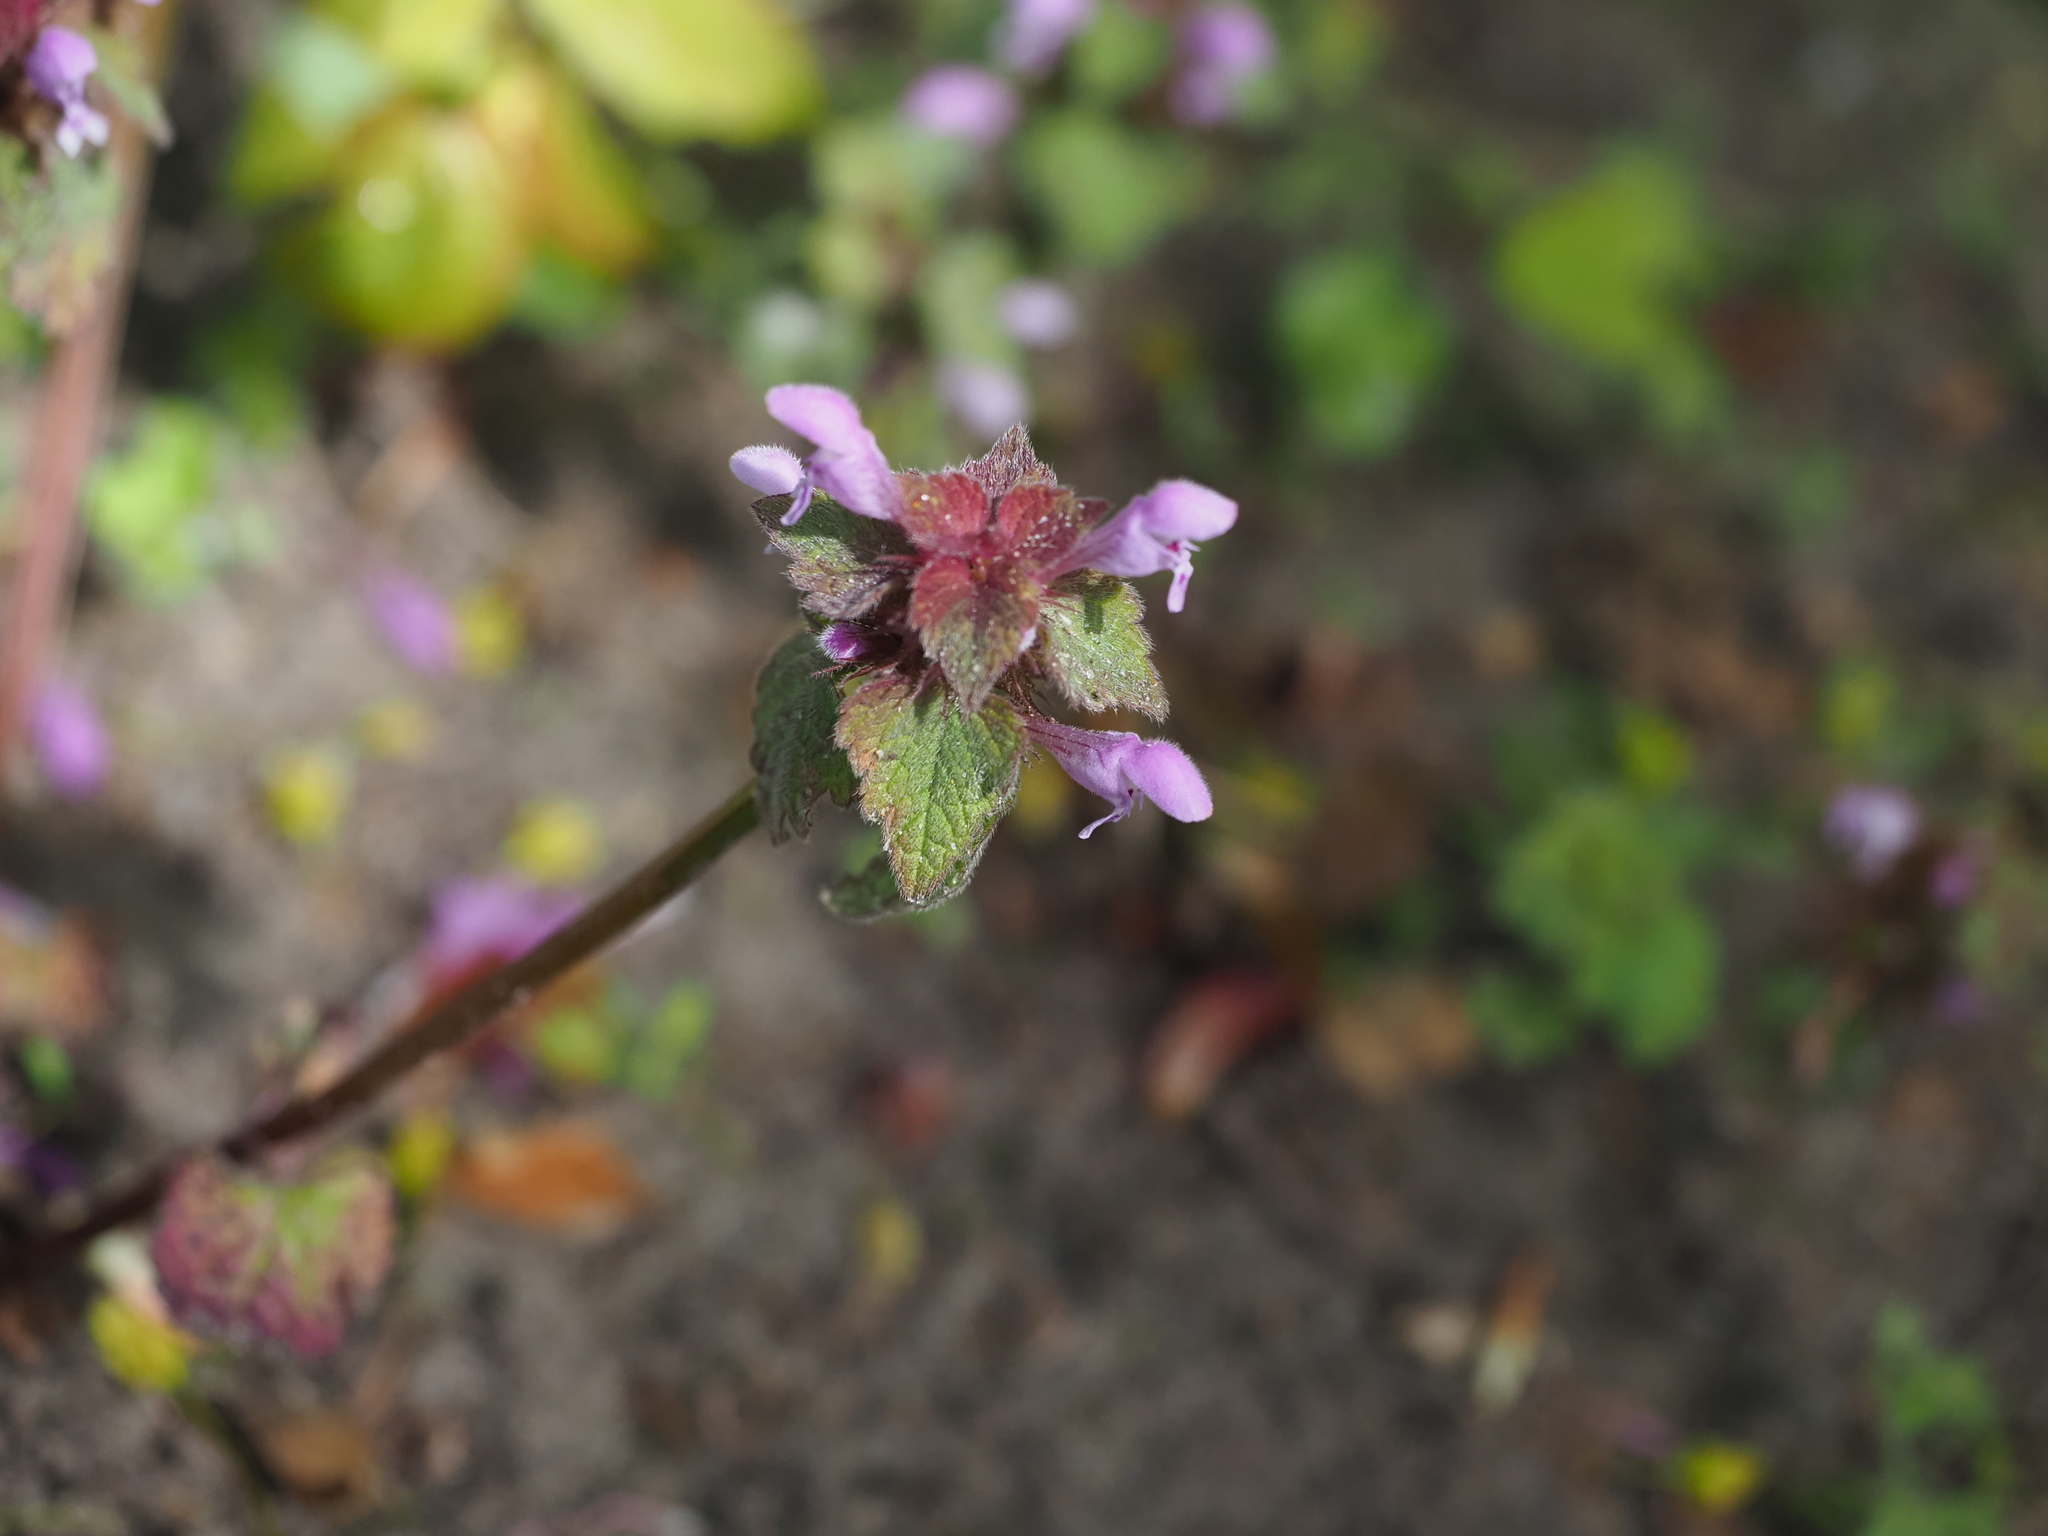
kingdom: Plantae
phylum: Tracheophyta
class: Magnoliopsida
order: Lamiales
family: Lamiaceae
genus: Lamium
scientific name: Lamium purpureum
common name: Red dead-nettle
